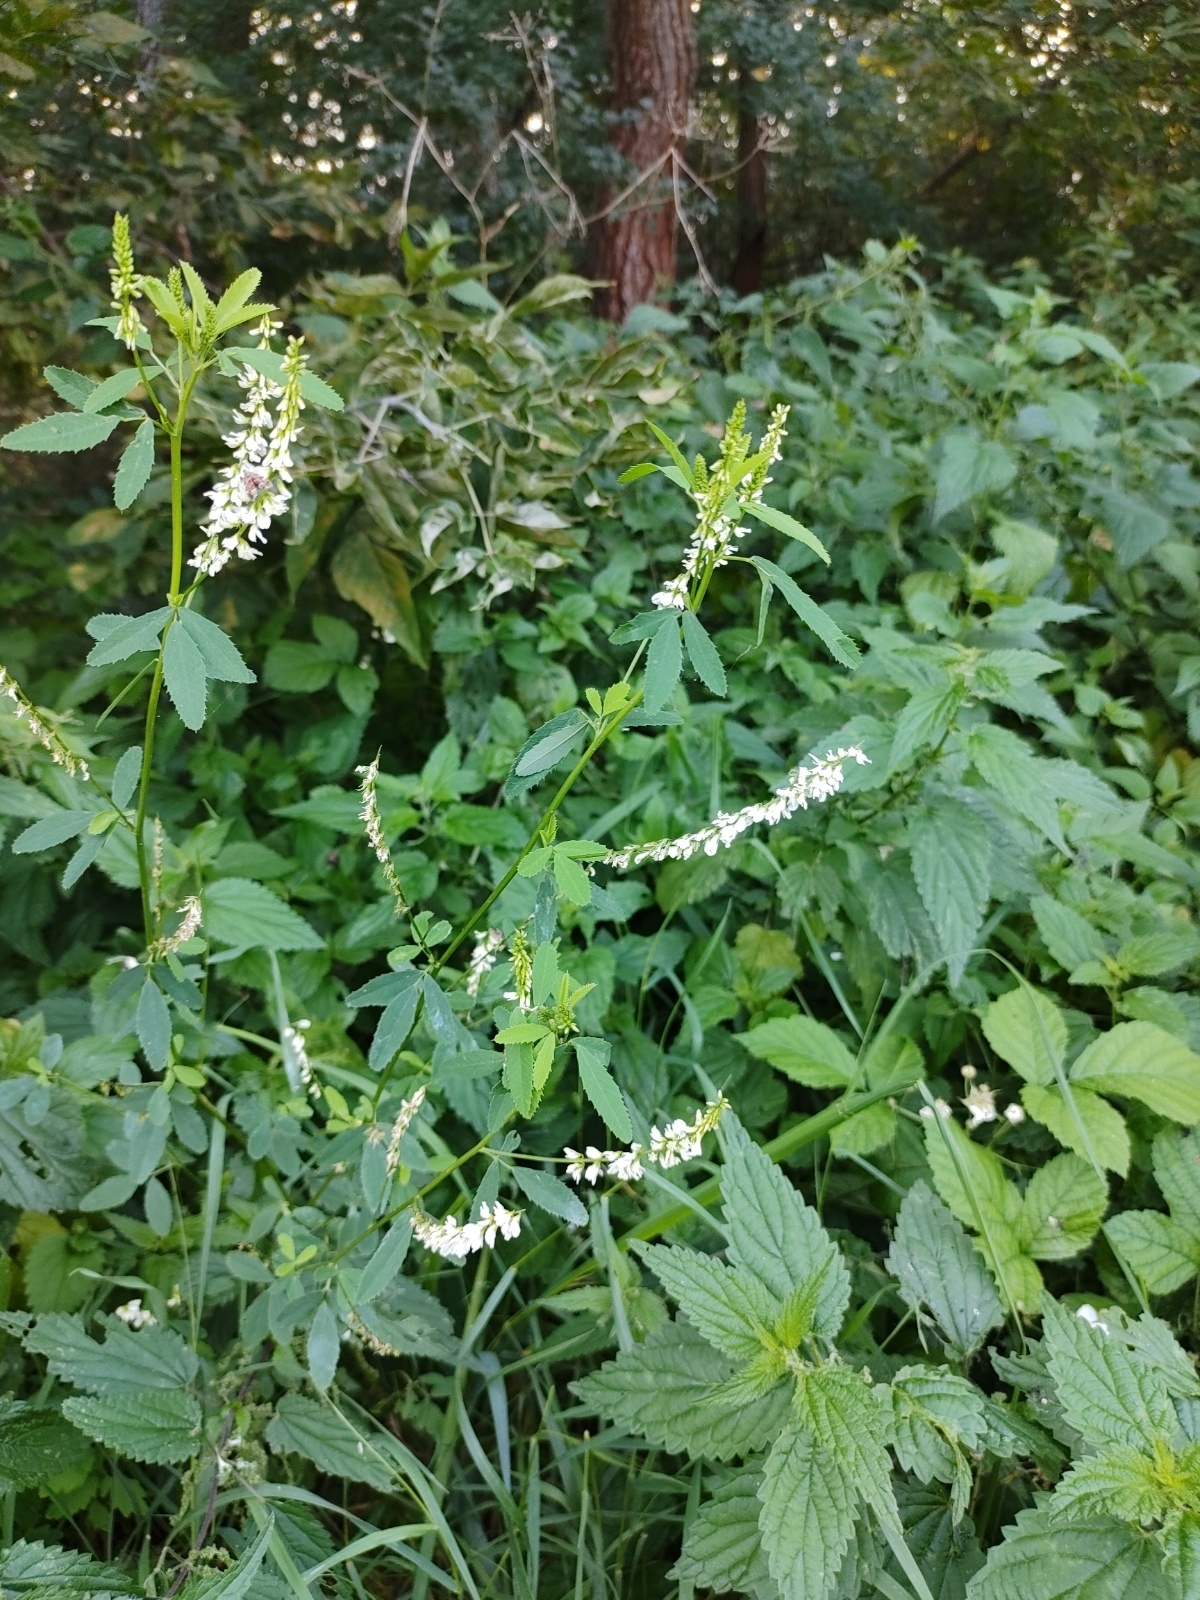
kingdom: Plantae
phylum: Tracheophyta
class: Magnoliopsida
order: Fabales
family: Fabaceae
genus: Melilotus
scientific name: Melilotus albus
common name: White melilot
